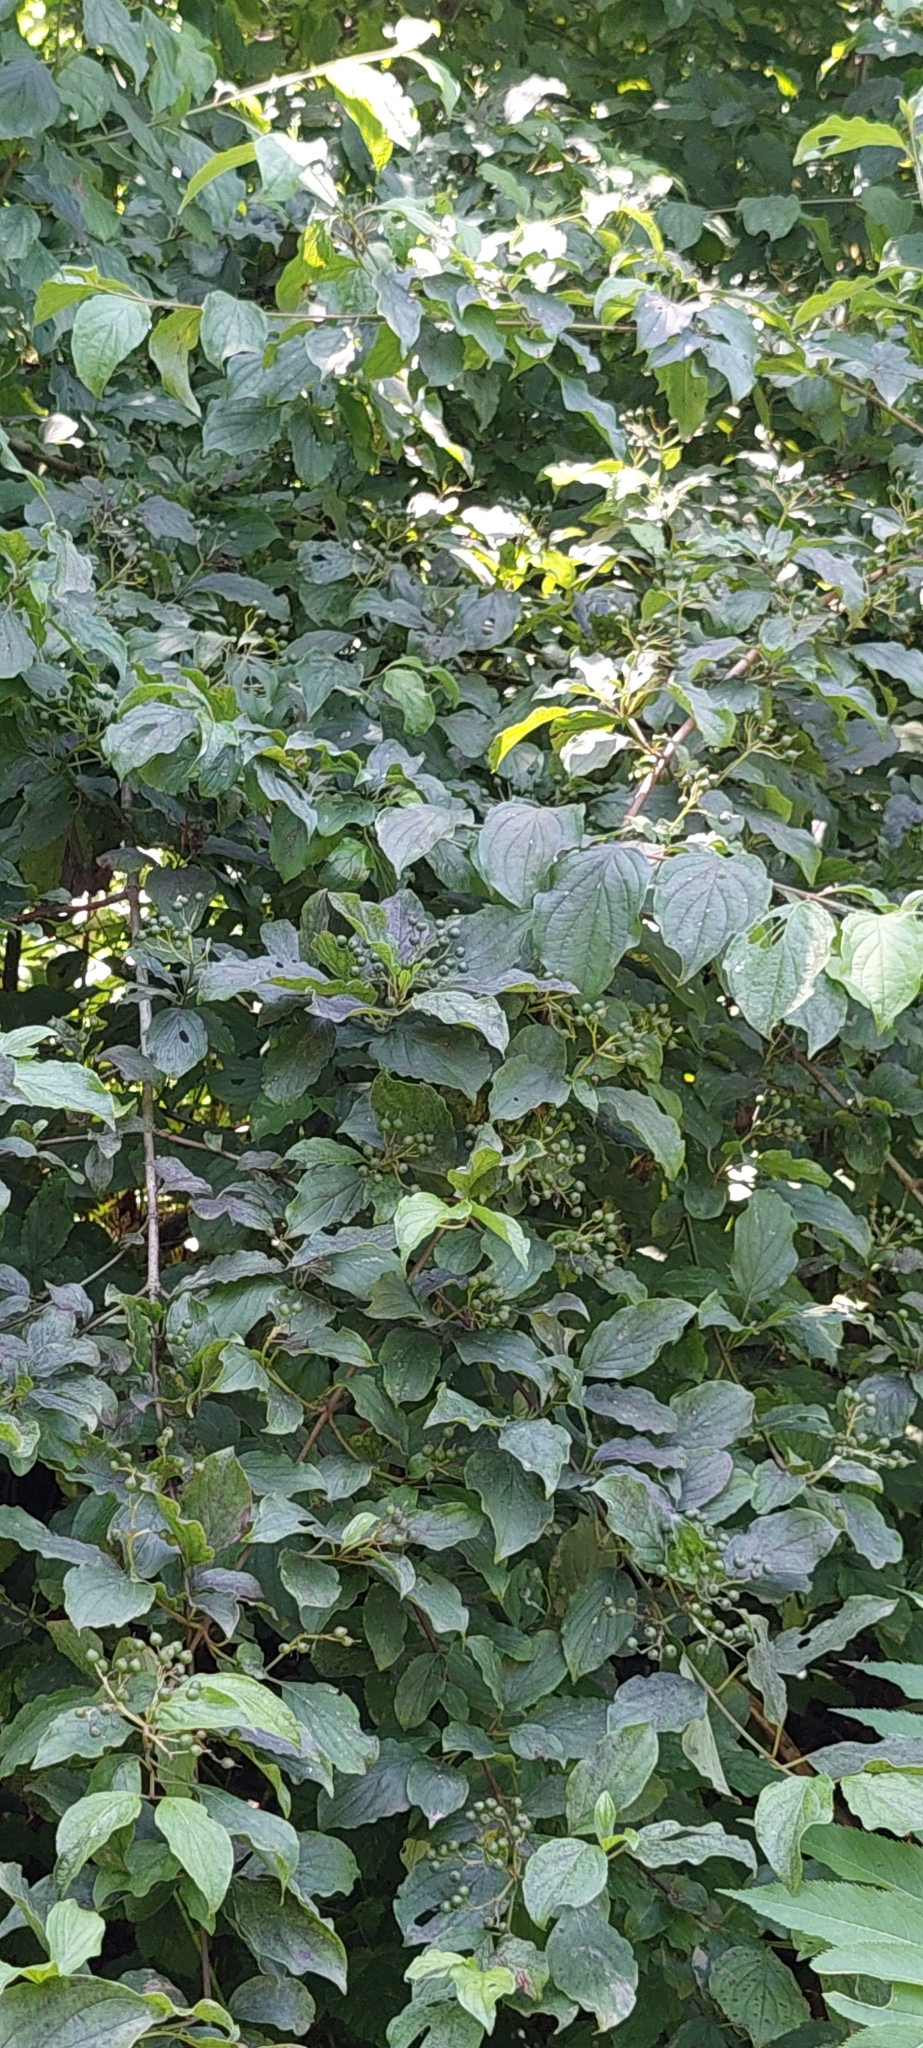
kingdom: Plantae
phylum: Tracheophyta
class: Magnoliopsida
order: Cornales
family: Cornaceae
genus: Cornus
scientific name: Cornus sanguinea
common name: Dogwood
